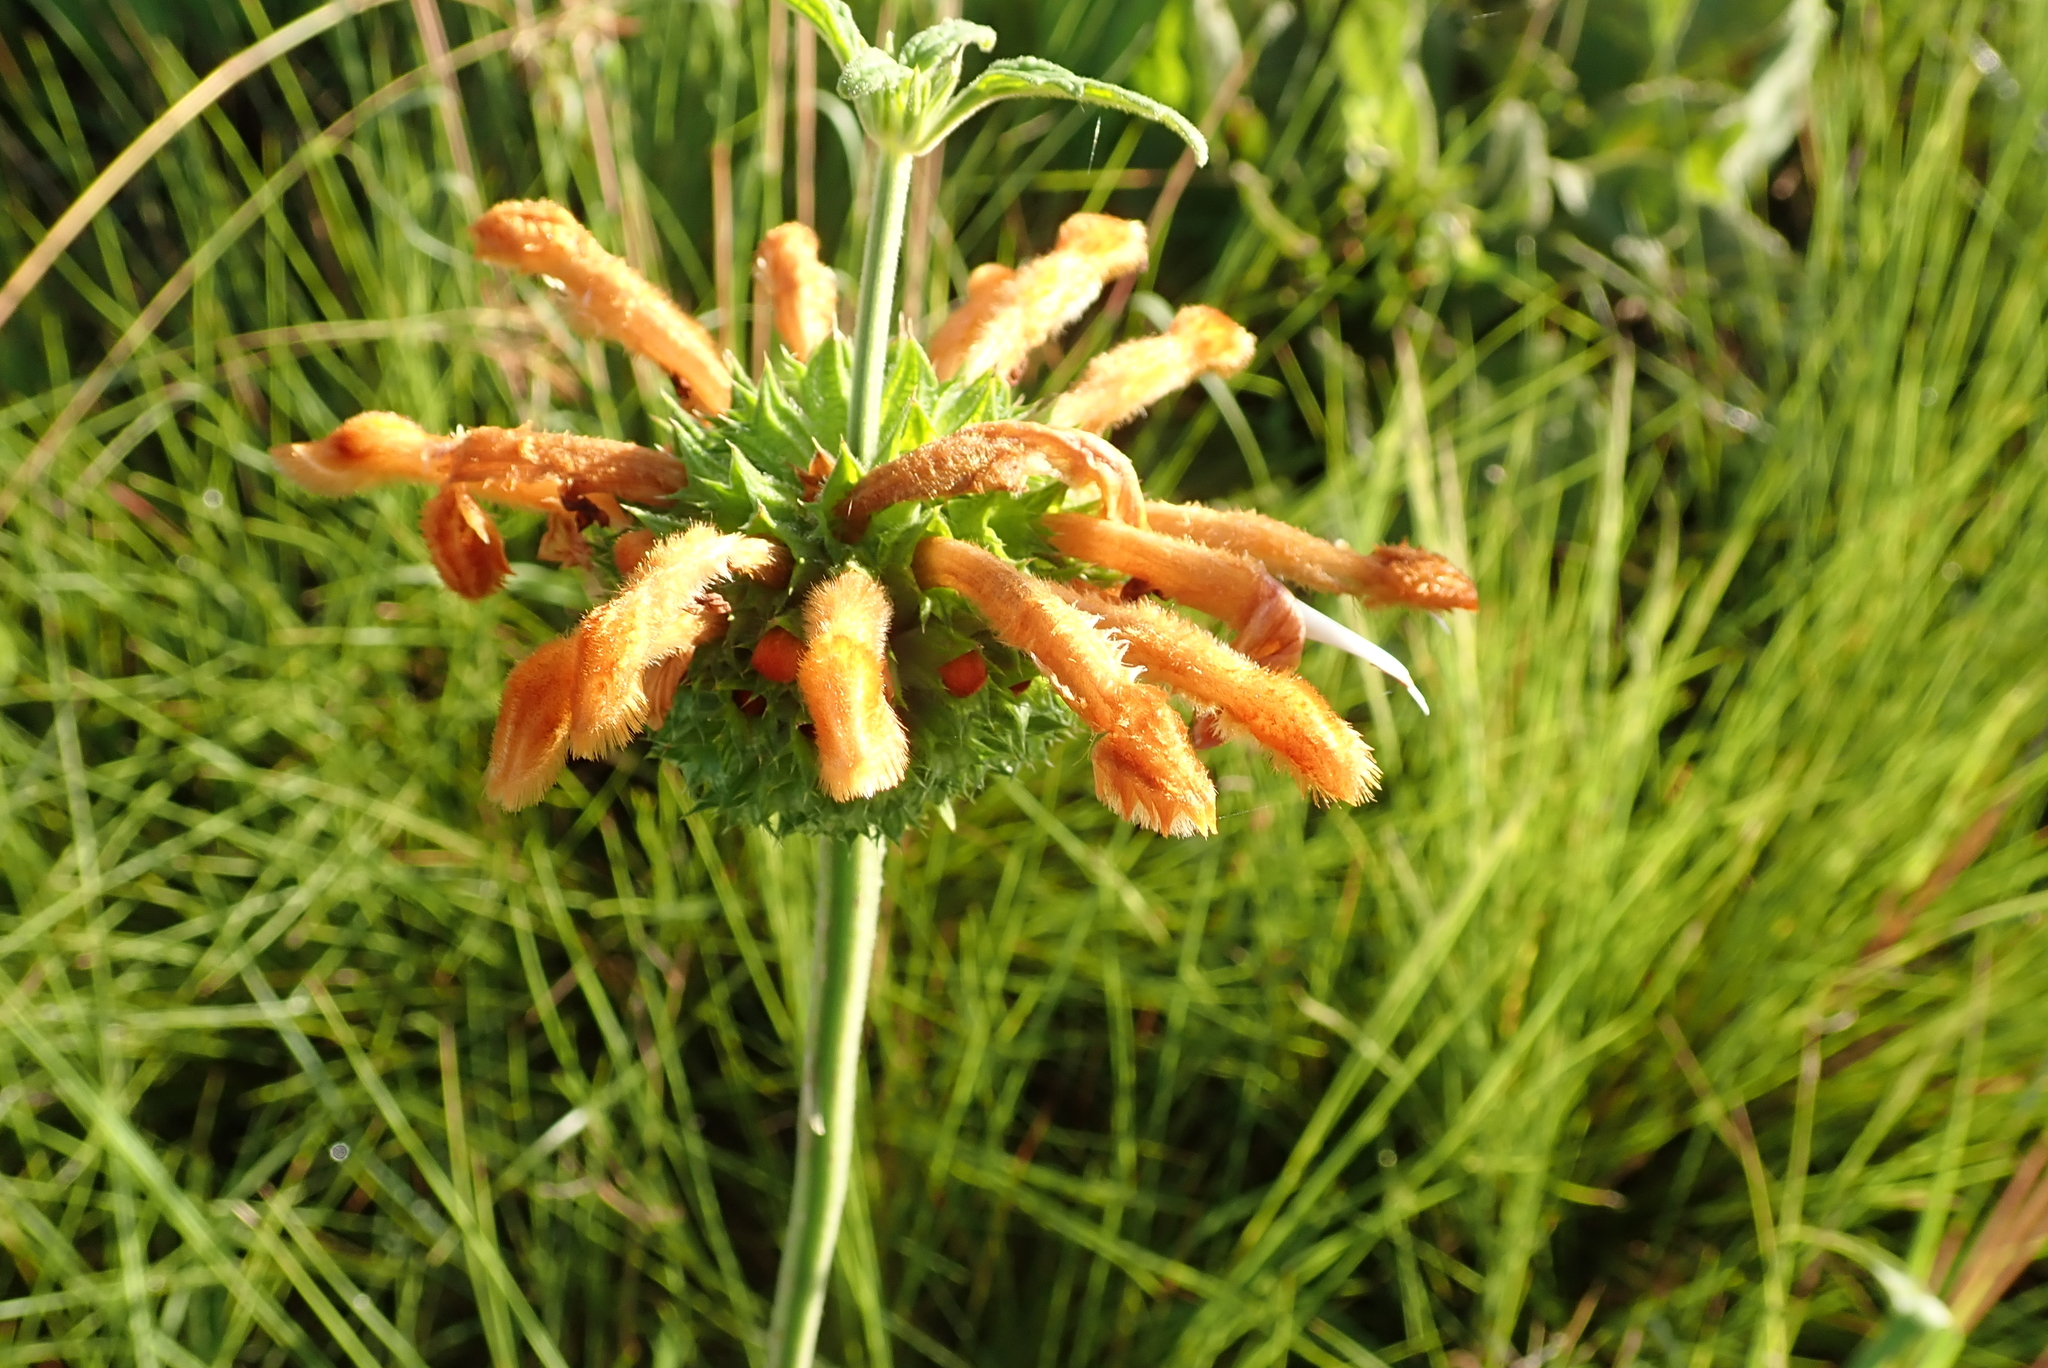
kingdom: Plantae
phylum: Tracheophyta
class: Magnoliopsida
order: Lamiales
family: Lamiaceae
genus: Leonotis
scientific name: Leonotis ocymifolia
